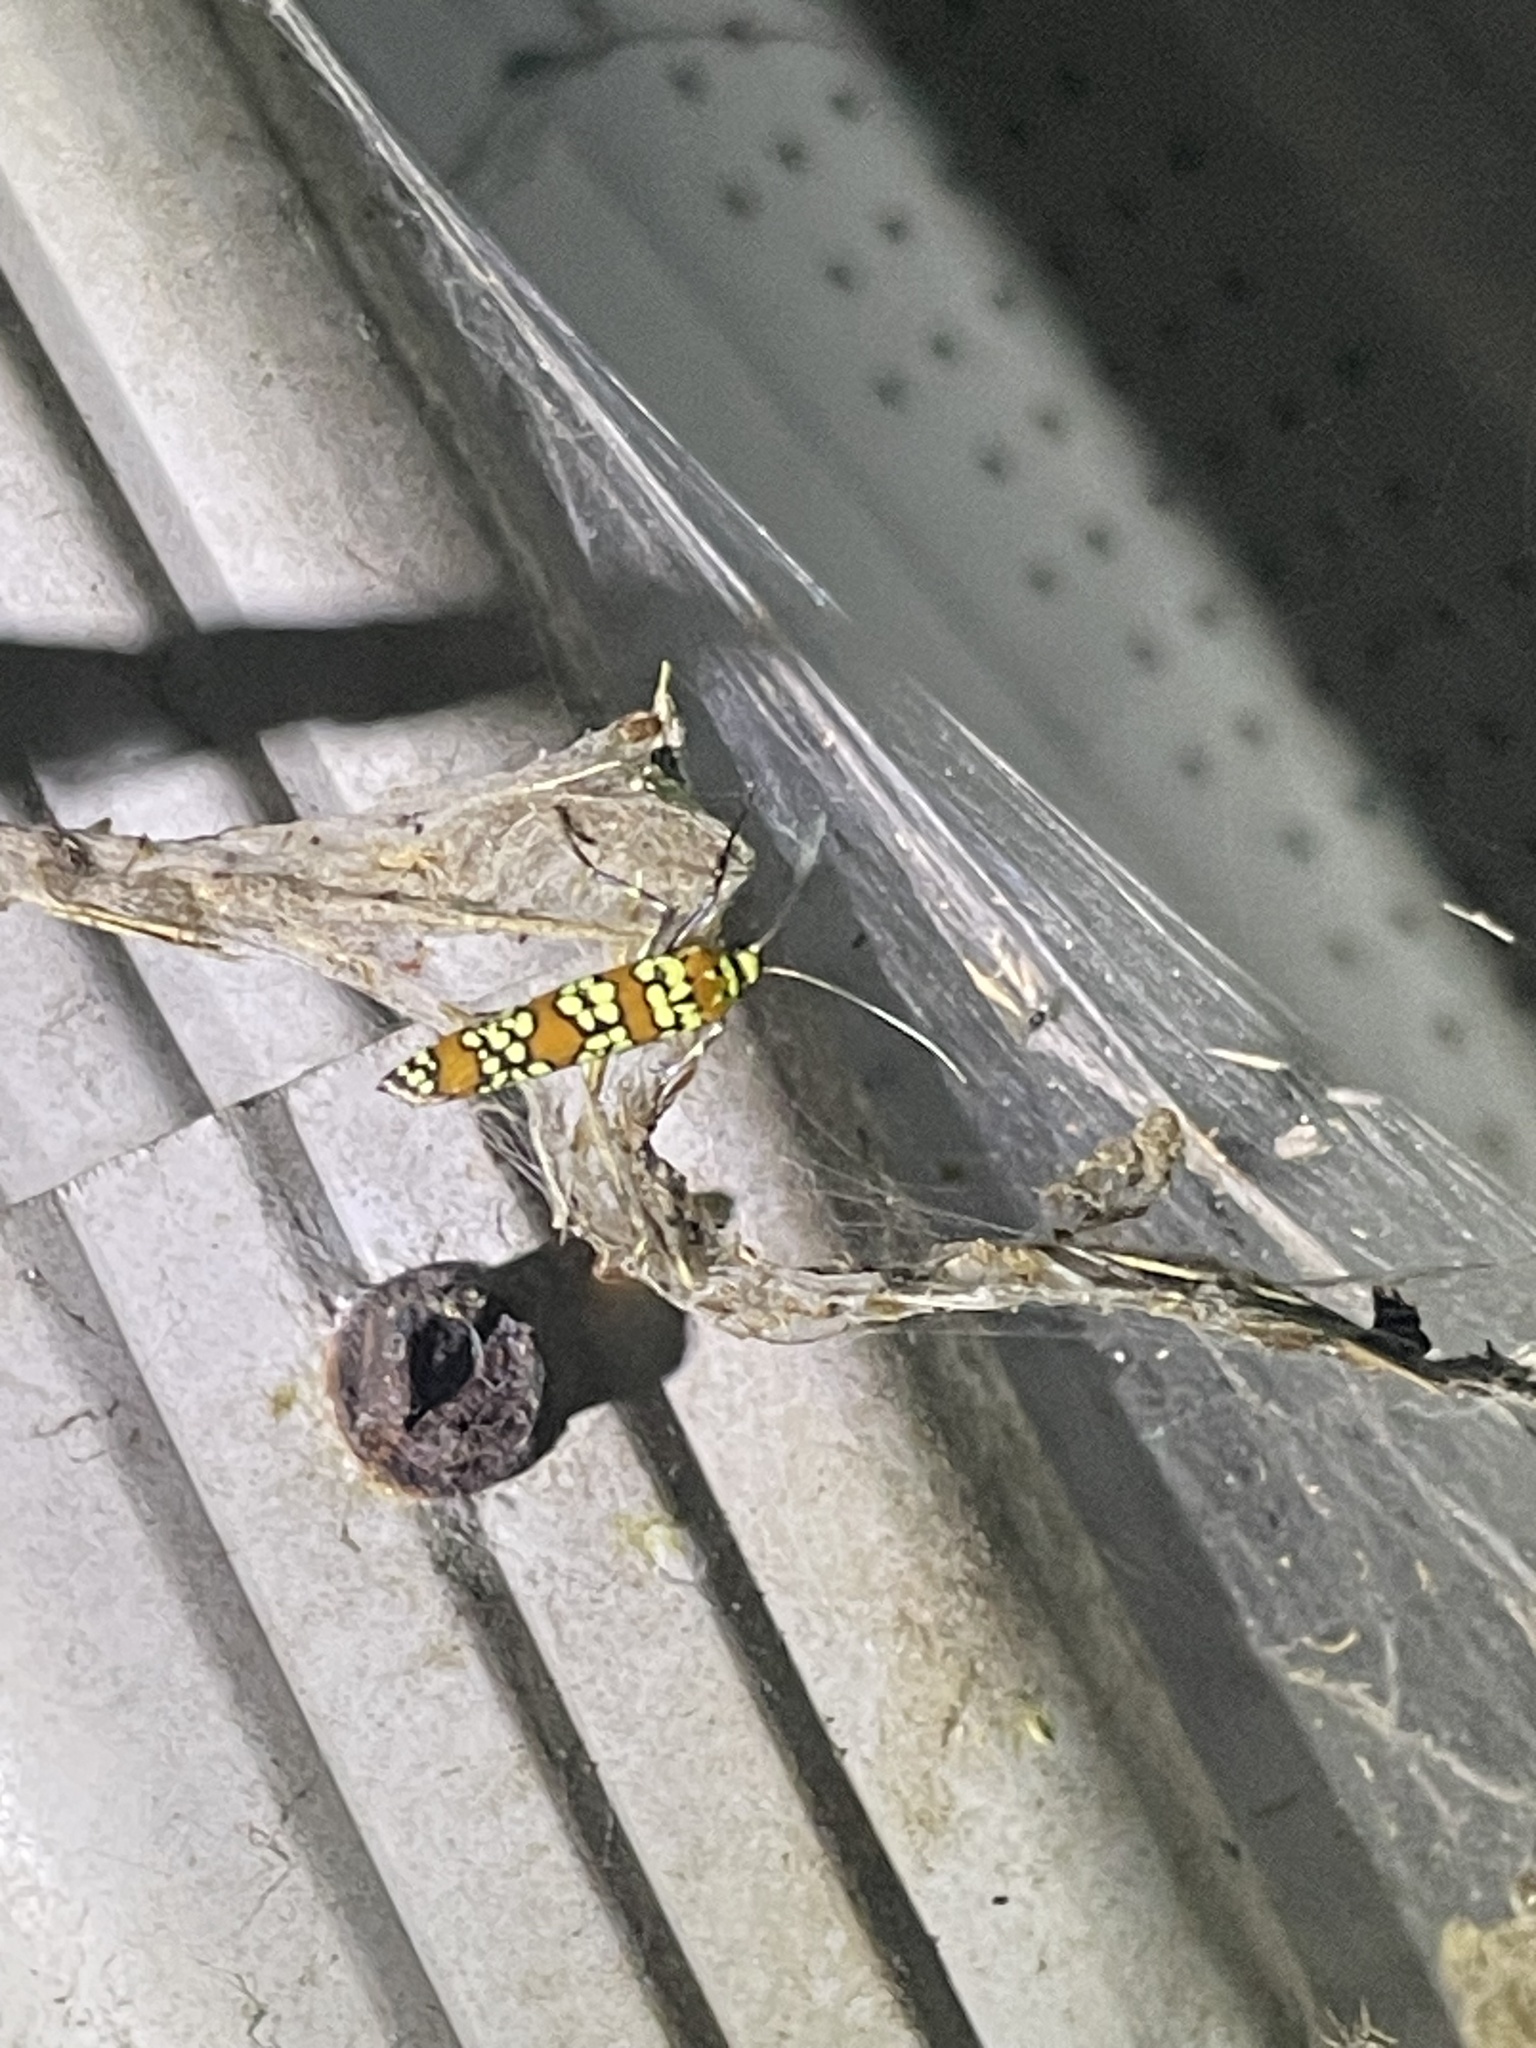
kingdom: Animalia
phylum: Arthropoda
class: Insecta
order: Lepidoptera
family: Attevidae
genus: Atteva
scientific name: Atteva punctella
